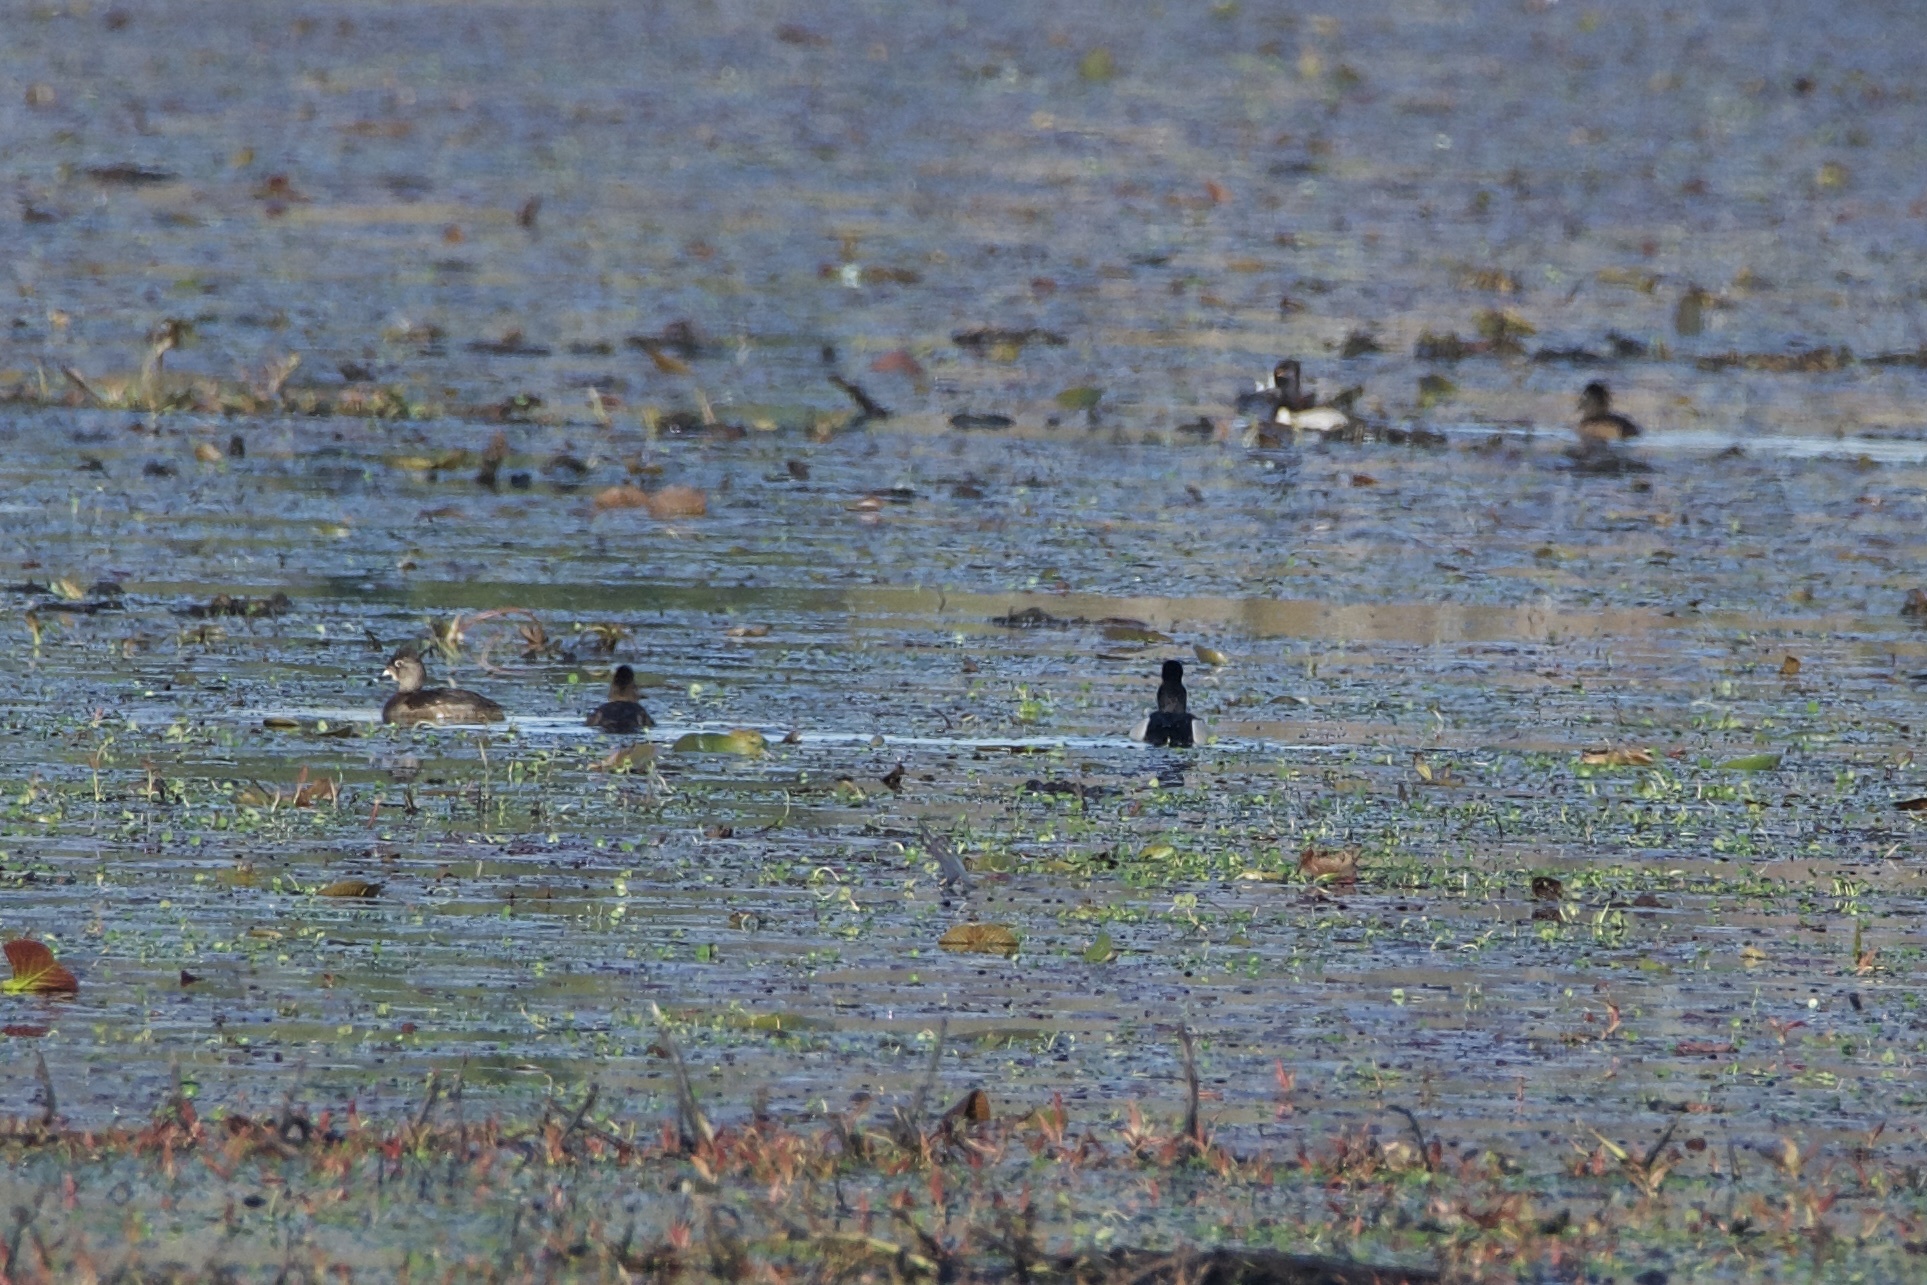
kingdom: Animalia
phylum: Chordata
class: Aves
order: Anseriformes
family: Anatidae
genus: Aythya
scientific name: Aythya collaris
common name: Ring-necked duck
